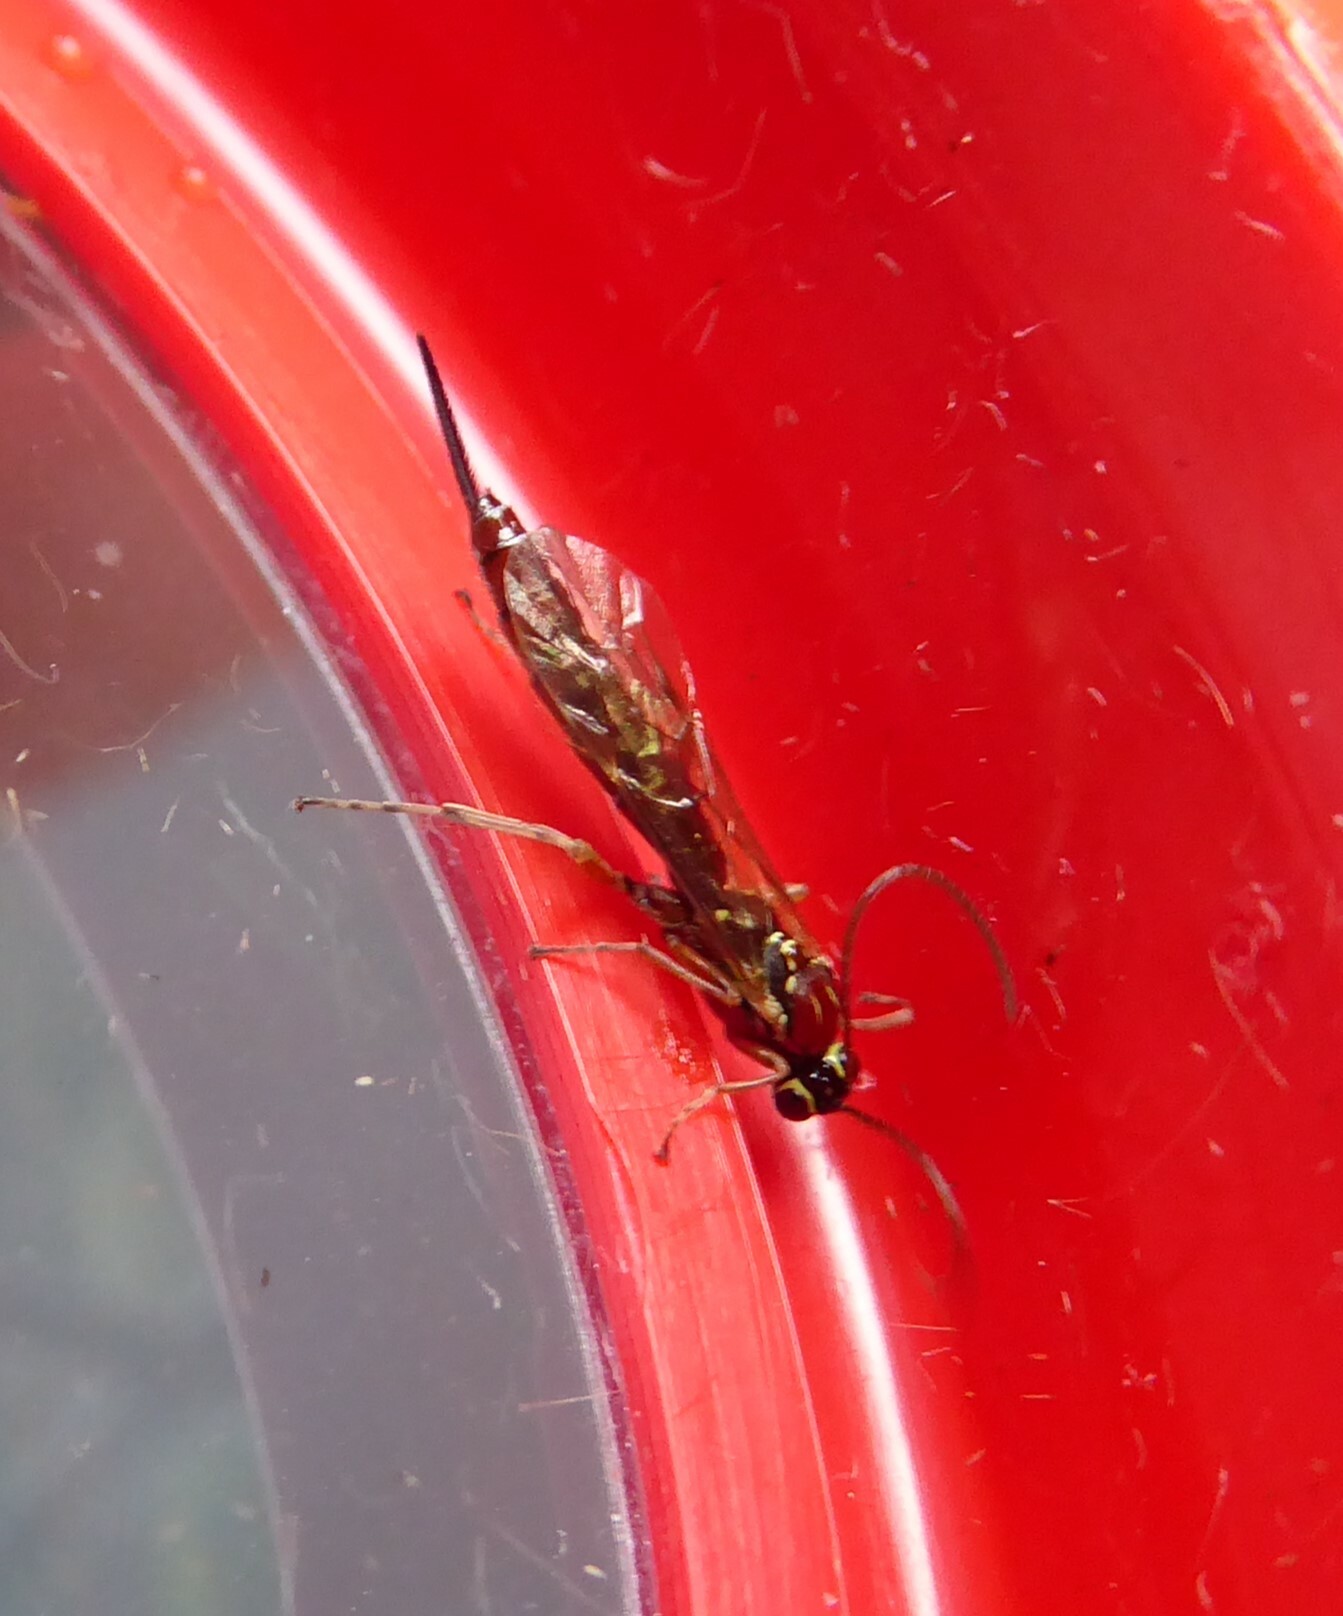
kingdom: Animalia
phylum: Arthropoda
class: Insecta
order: Hymenoptera
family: Ichneumonidae
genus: Tromatobia
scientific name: Tromatobia lineatoria
